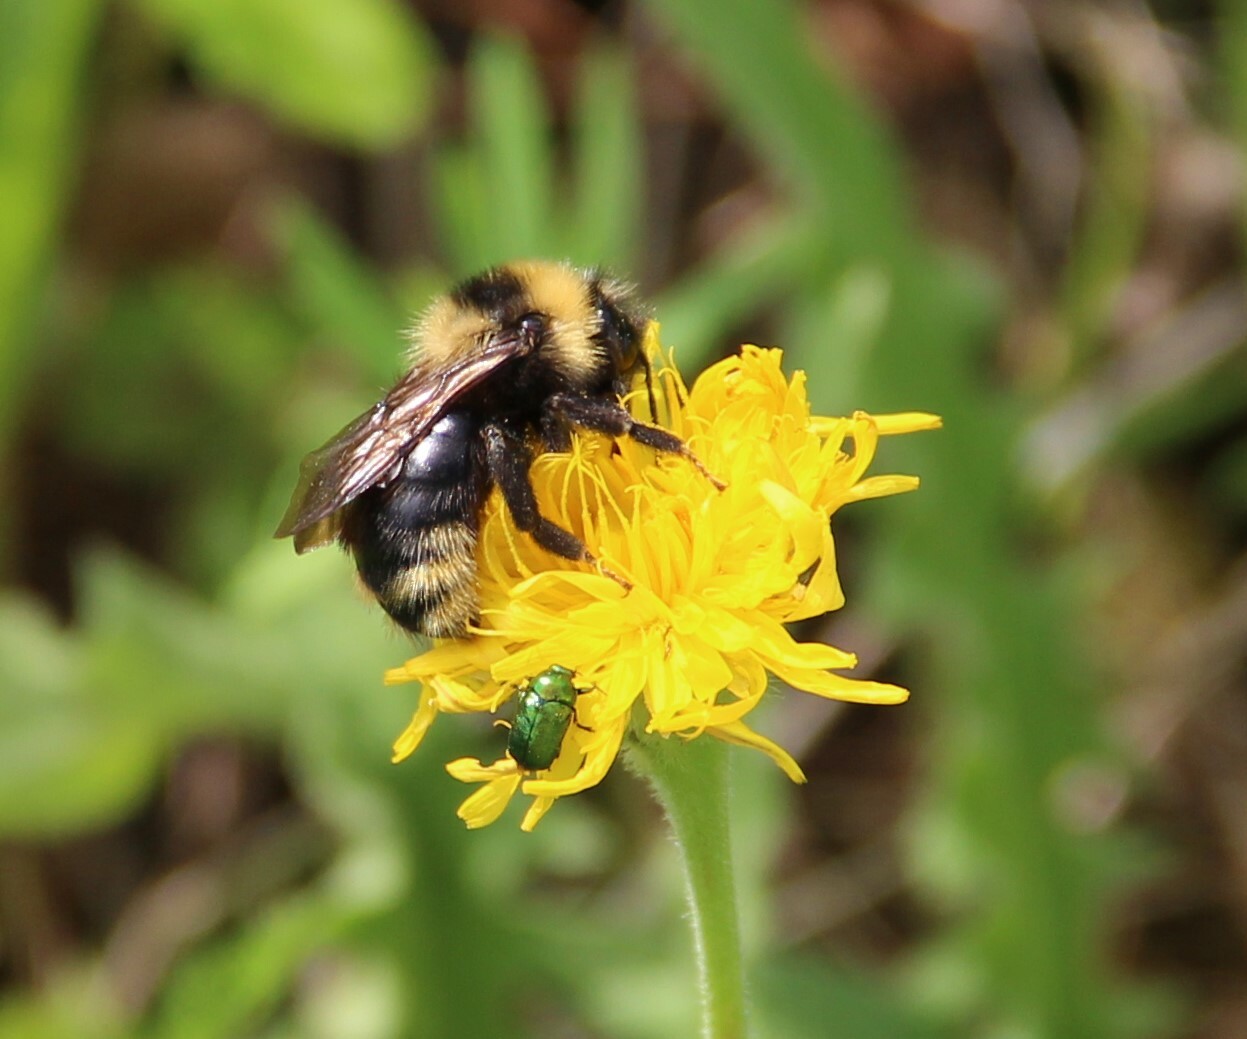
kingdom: Animalia
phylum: Arthropoda
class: Insecta
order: Hymenoptera
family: Apidae
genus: Bombus
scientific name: Bombus campestris
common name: Field cuckoo-bee
